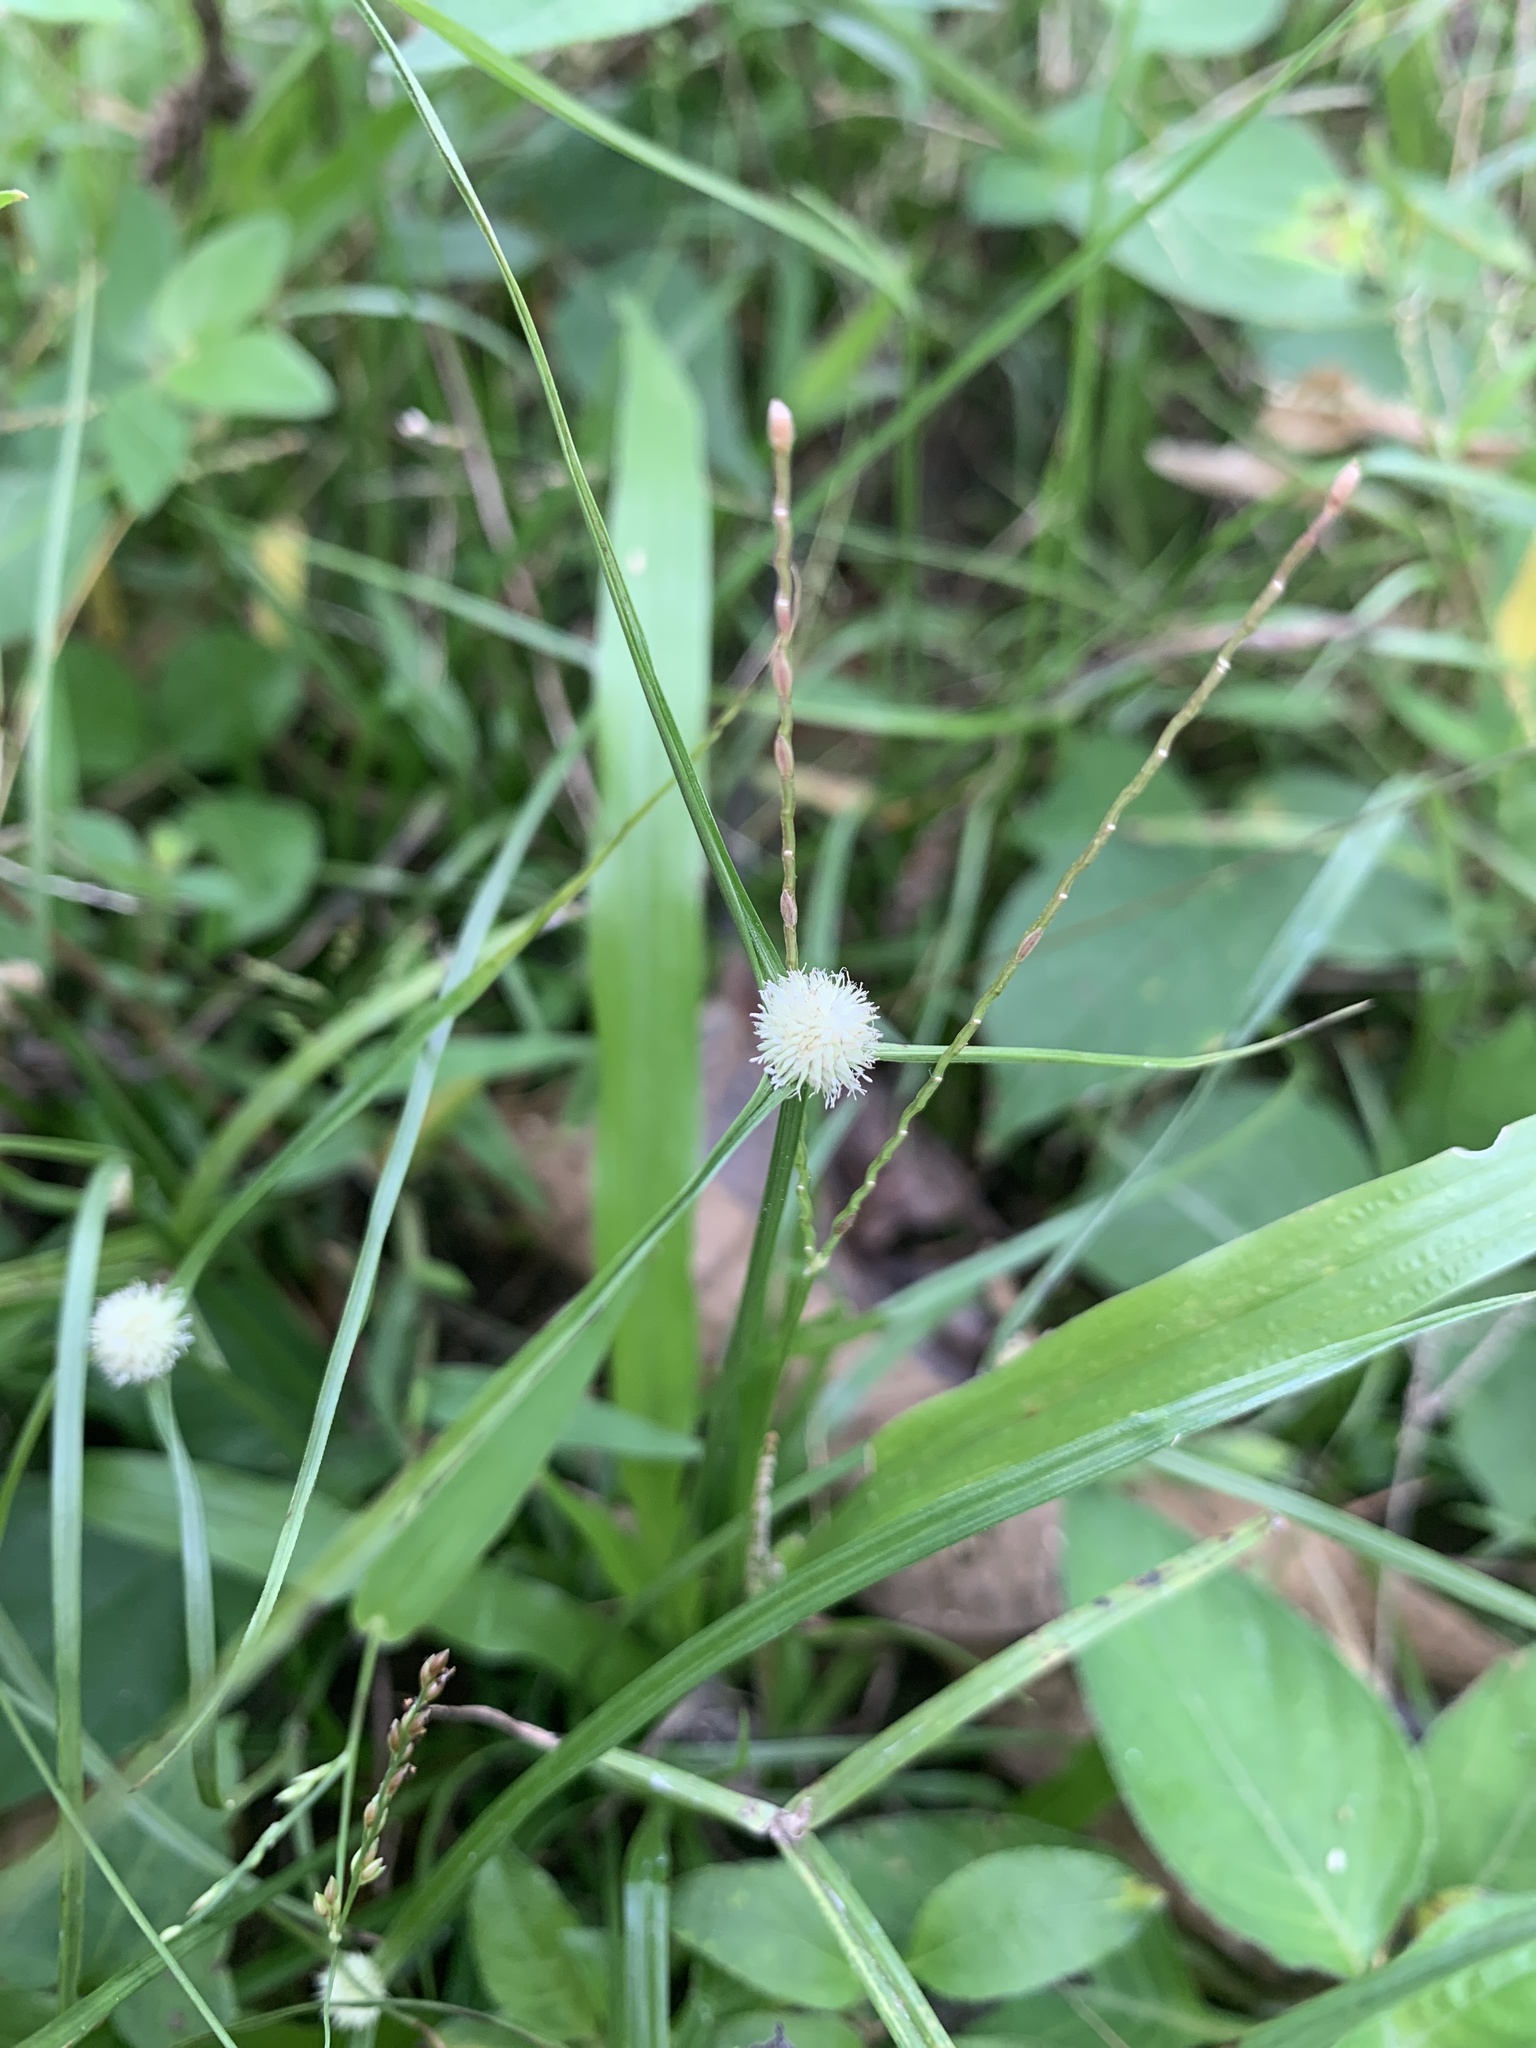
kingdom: Plantae
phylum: Tracheophyta
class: Liliopsida
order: Poales
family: Cyperaceae
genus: Cyperus
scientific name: Cyperus mindorensis
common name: Flatsedge
